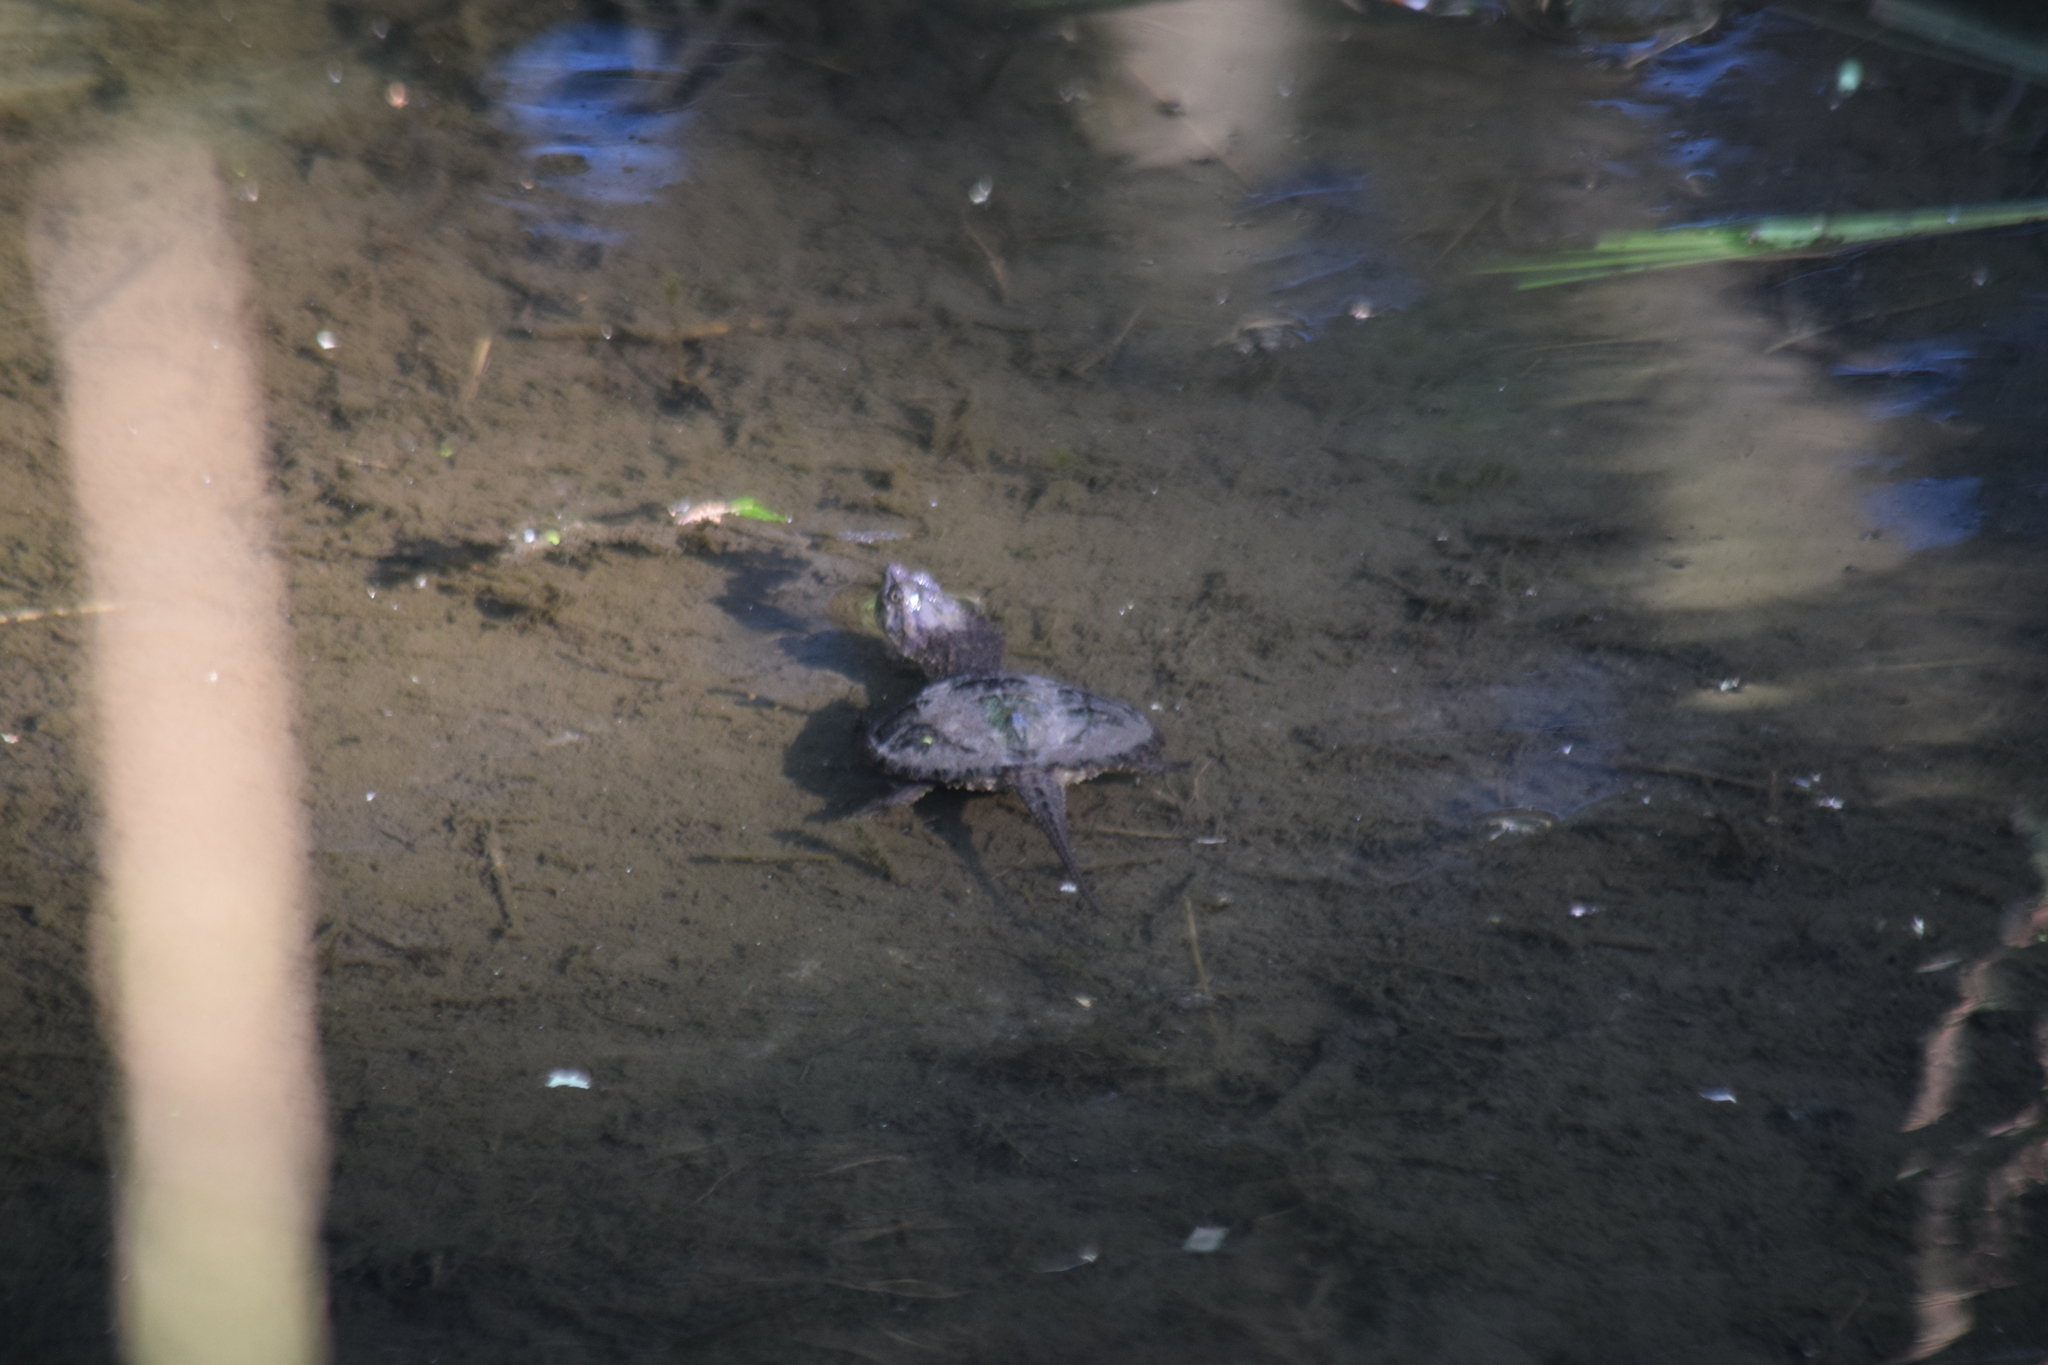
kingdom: Animalia
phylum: Chordata
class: Testudines
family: Chelydridae
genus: Chelydra
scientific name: Chelydra serpentina
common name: Common snapping turtle
